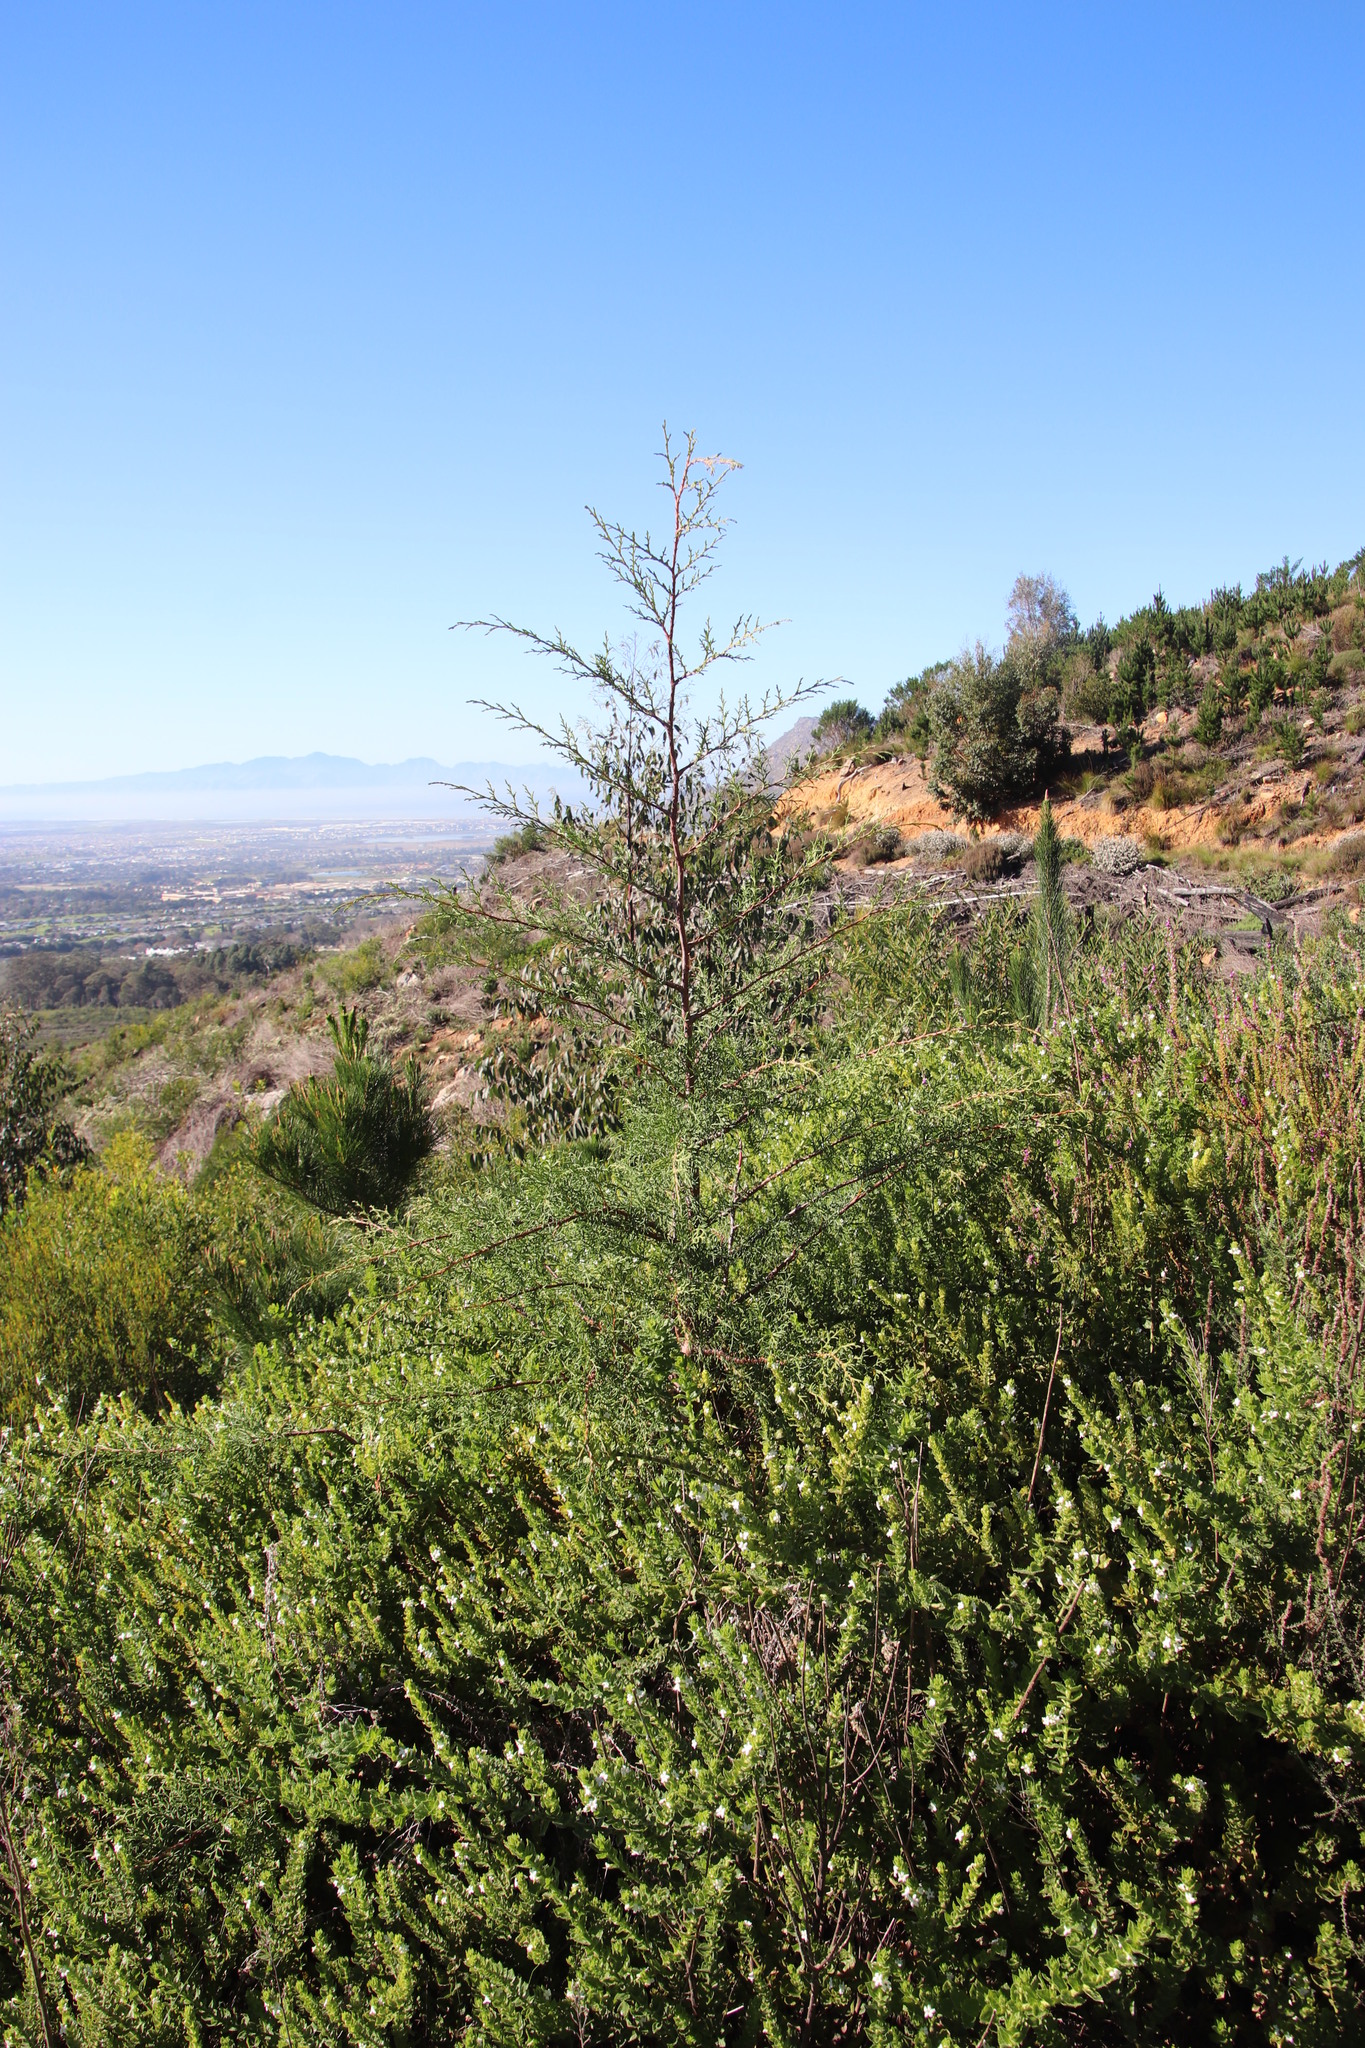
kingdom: Plantae
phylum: Tracheophyta
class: Pinopsida
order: Pinales
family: Cupressaceae
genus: Cupressus
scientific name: Cupressus lusitanica
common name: Mexican cypress
